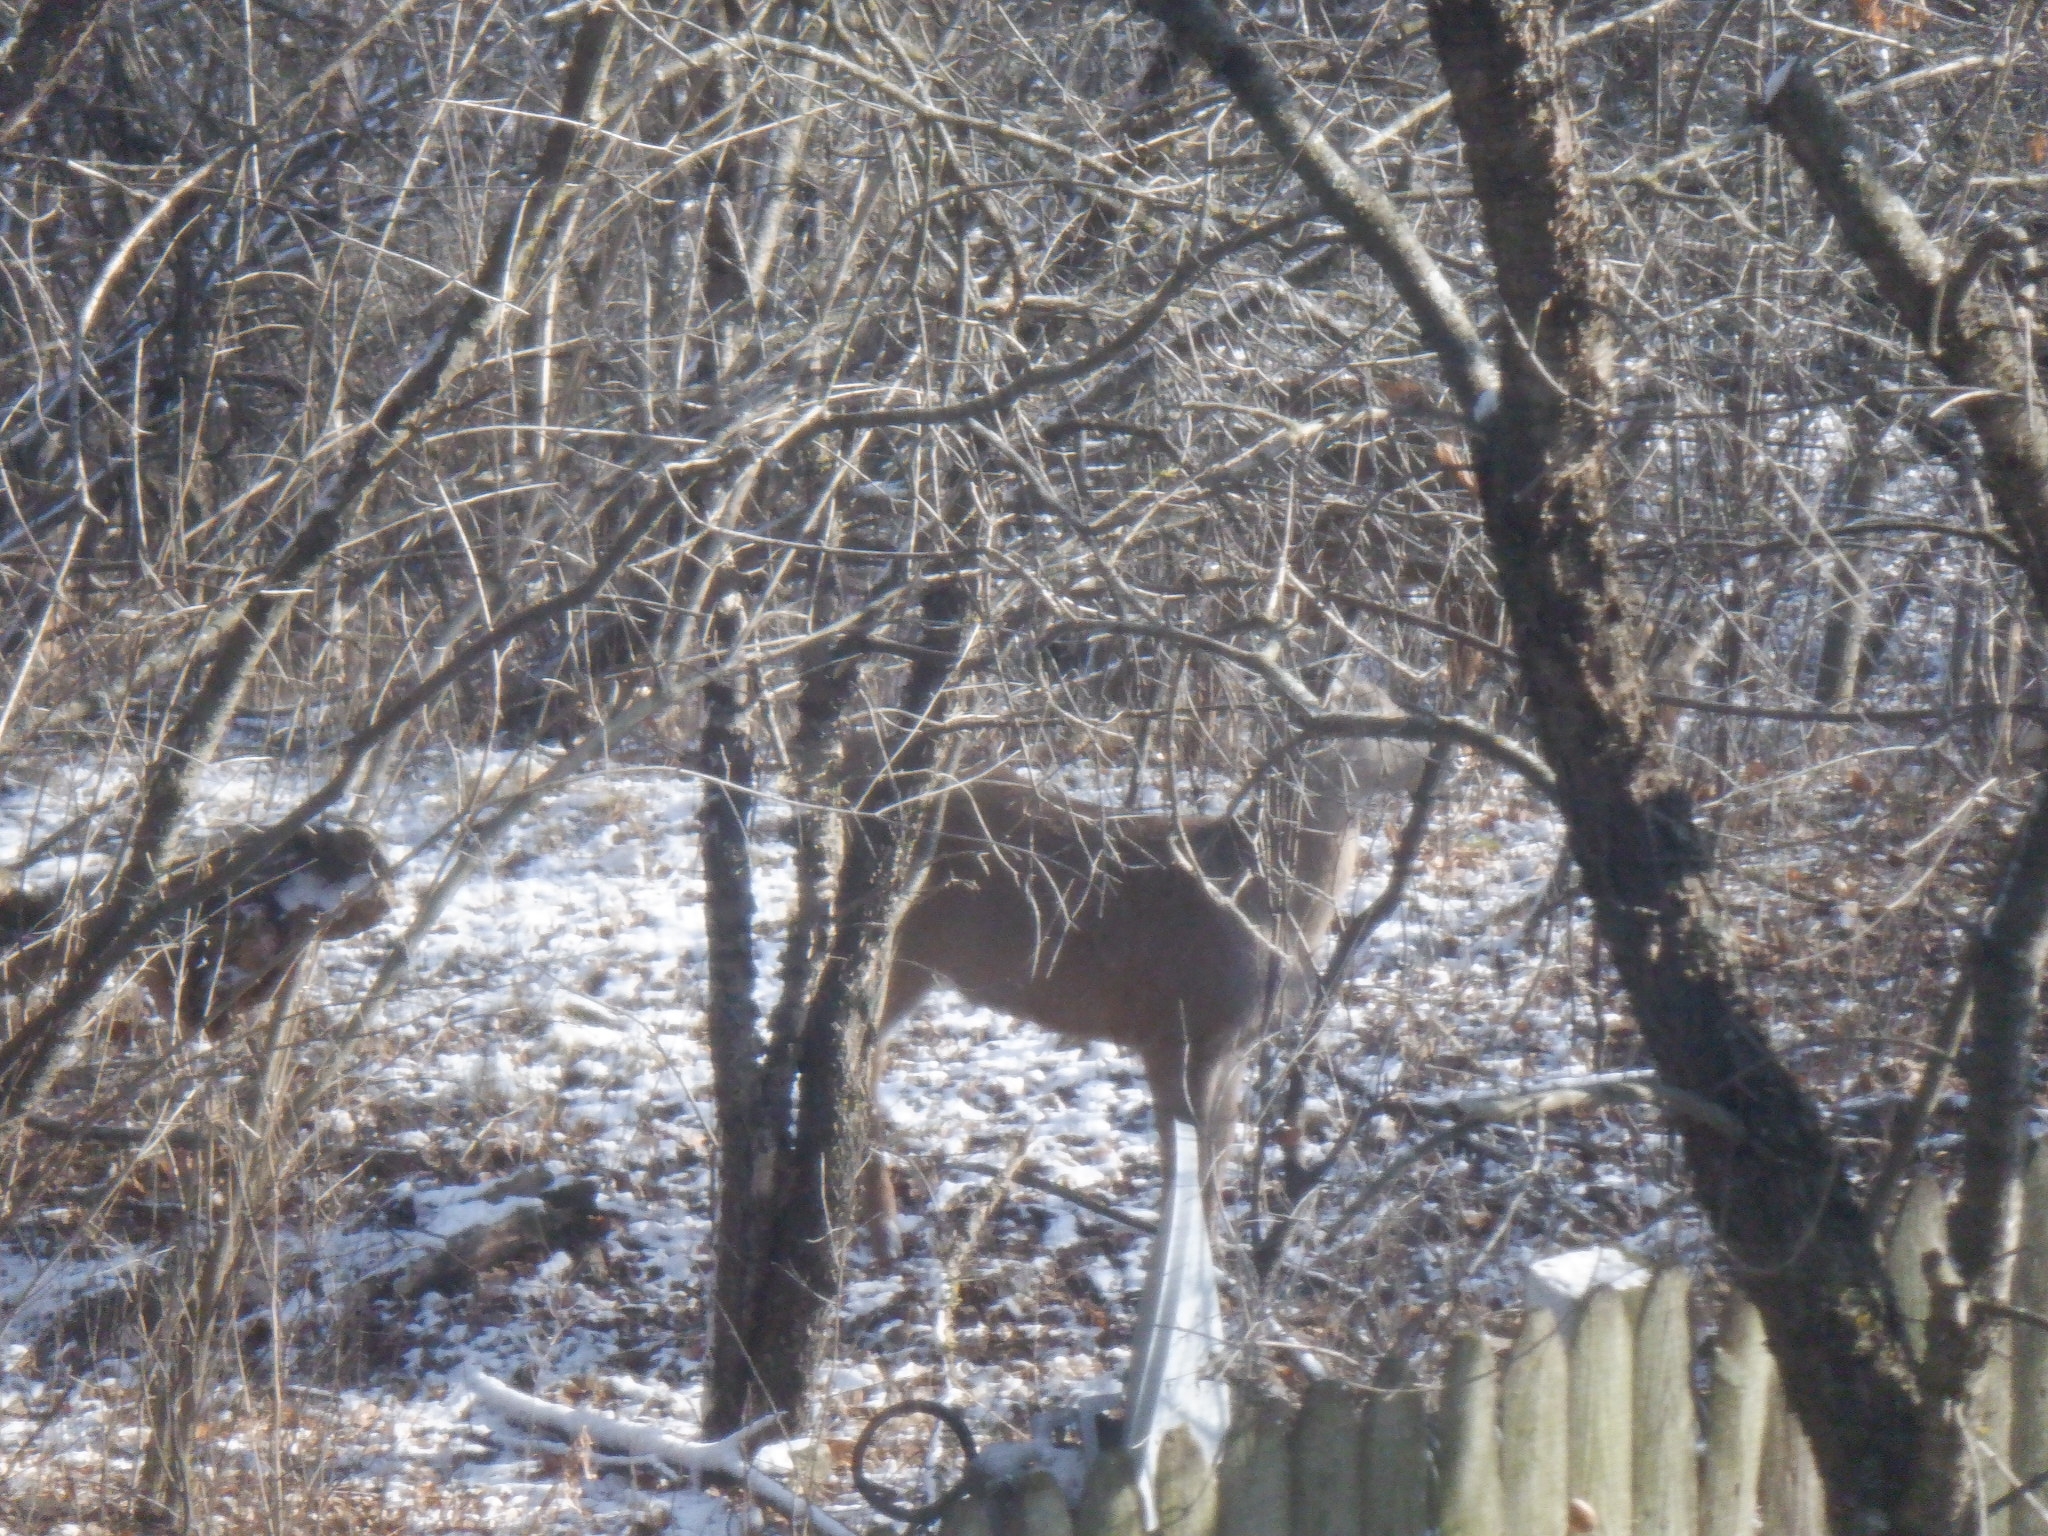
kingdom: Animalia
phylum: Chordata
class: Mammalia
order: Artiodactyla
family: Cervidae
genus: Odocoileus
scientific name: Odocoileus virginianus
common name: White-tailed deer
